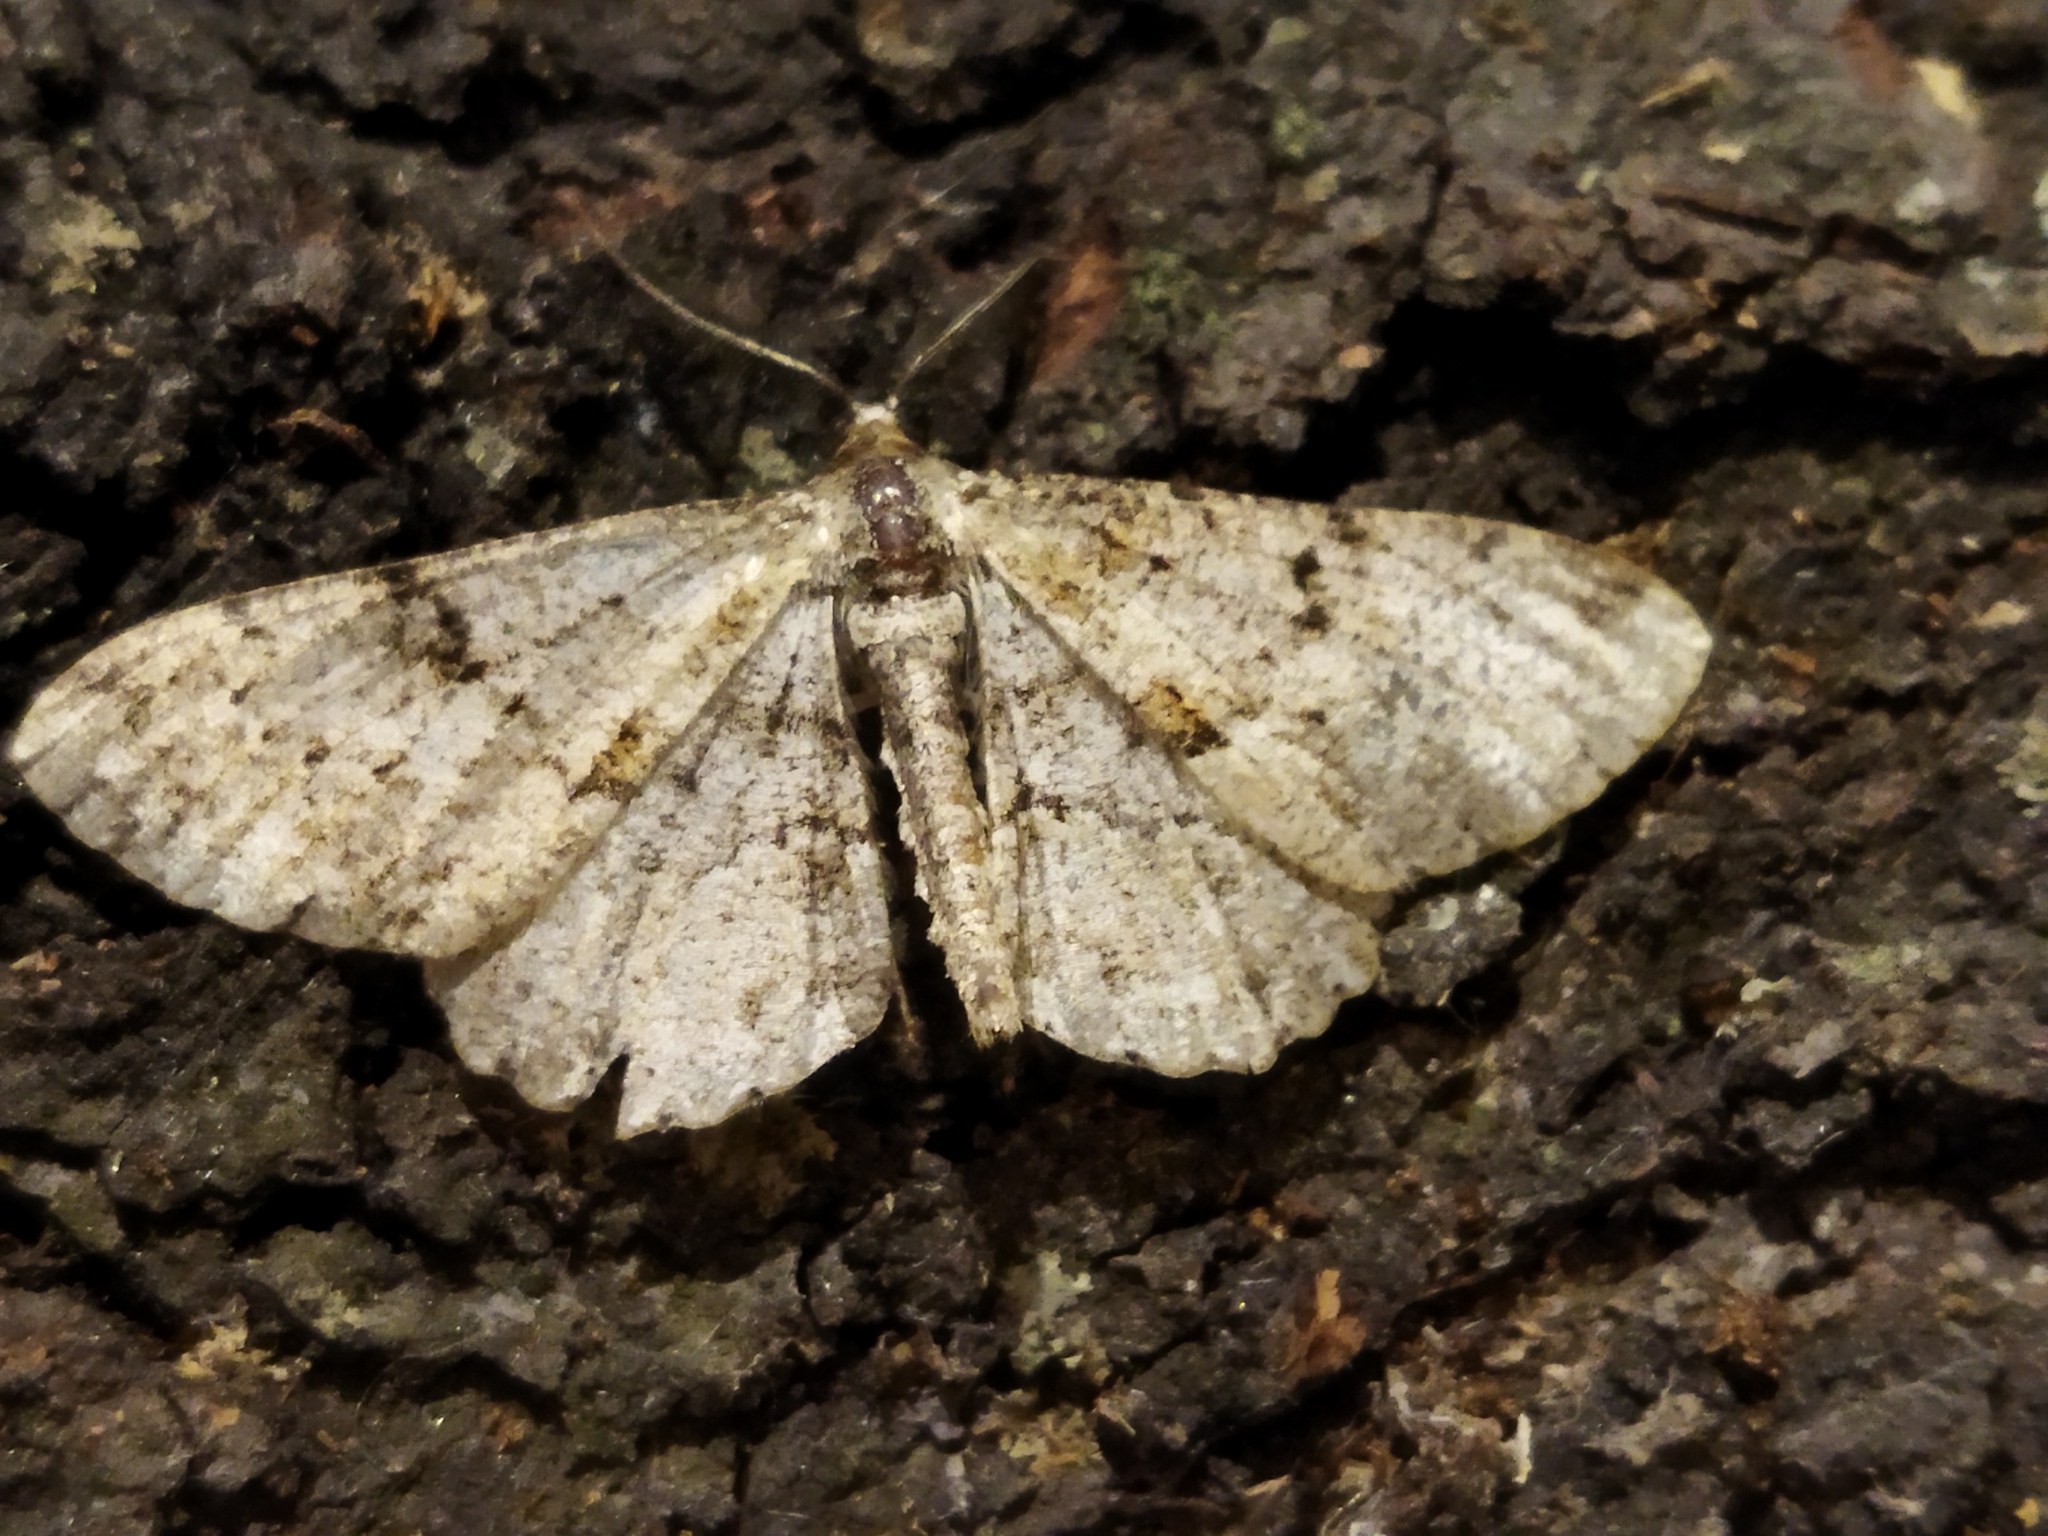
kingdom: Animalia
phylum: Arthropoda
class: Insecta
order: Lepidoptera
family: Geometridae
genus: Peribatodes
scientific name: Peribatodes rhomboidaria
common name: Willow beauty
